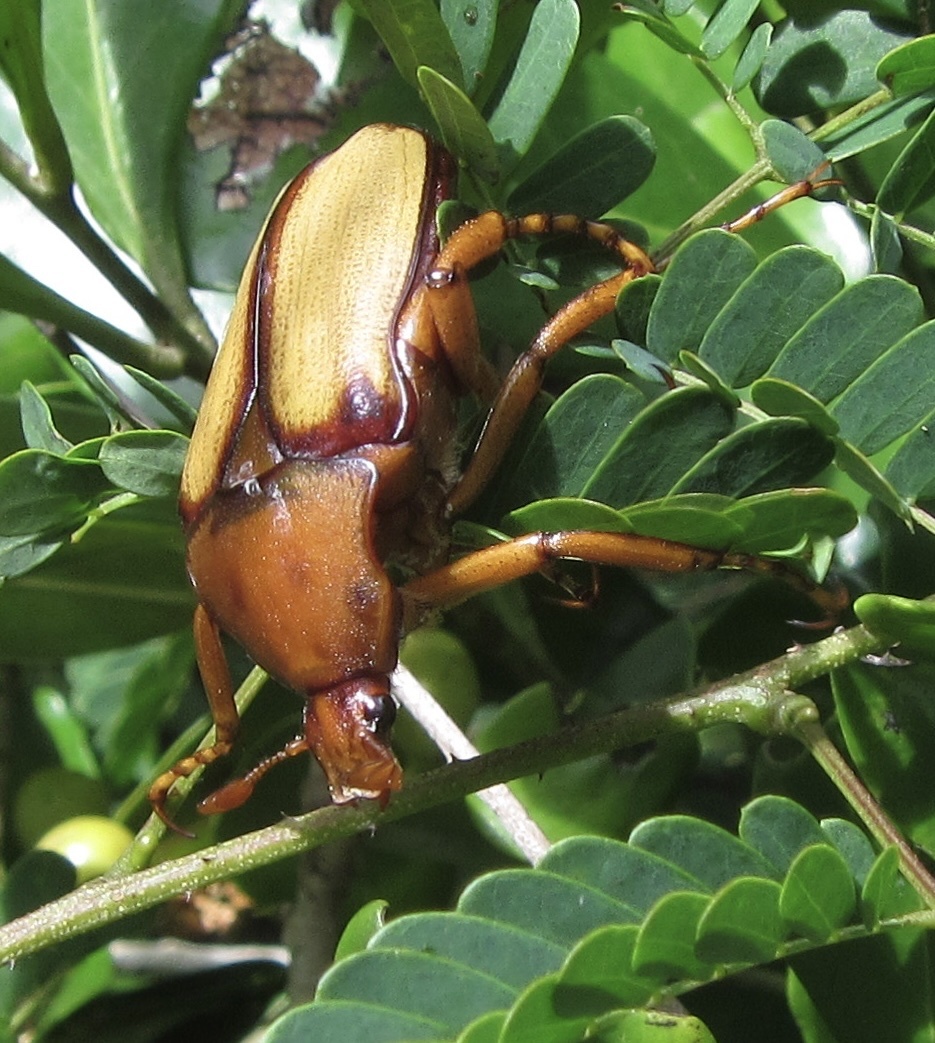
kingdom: Animalia
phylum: Arthropoda
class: Insecta
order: Coleoptera
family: Scarabaeidae
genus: Anisorrhina
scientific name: Anisorrhina serripes
